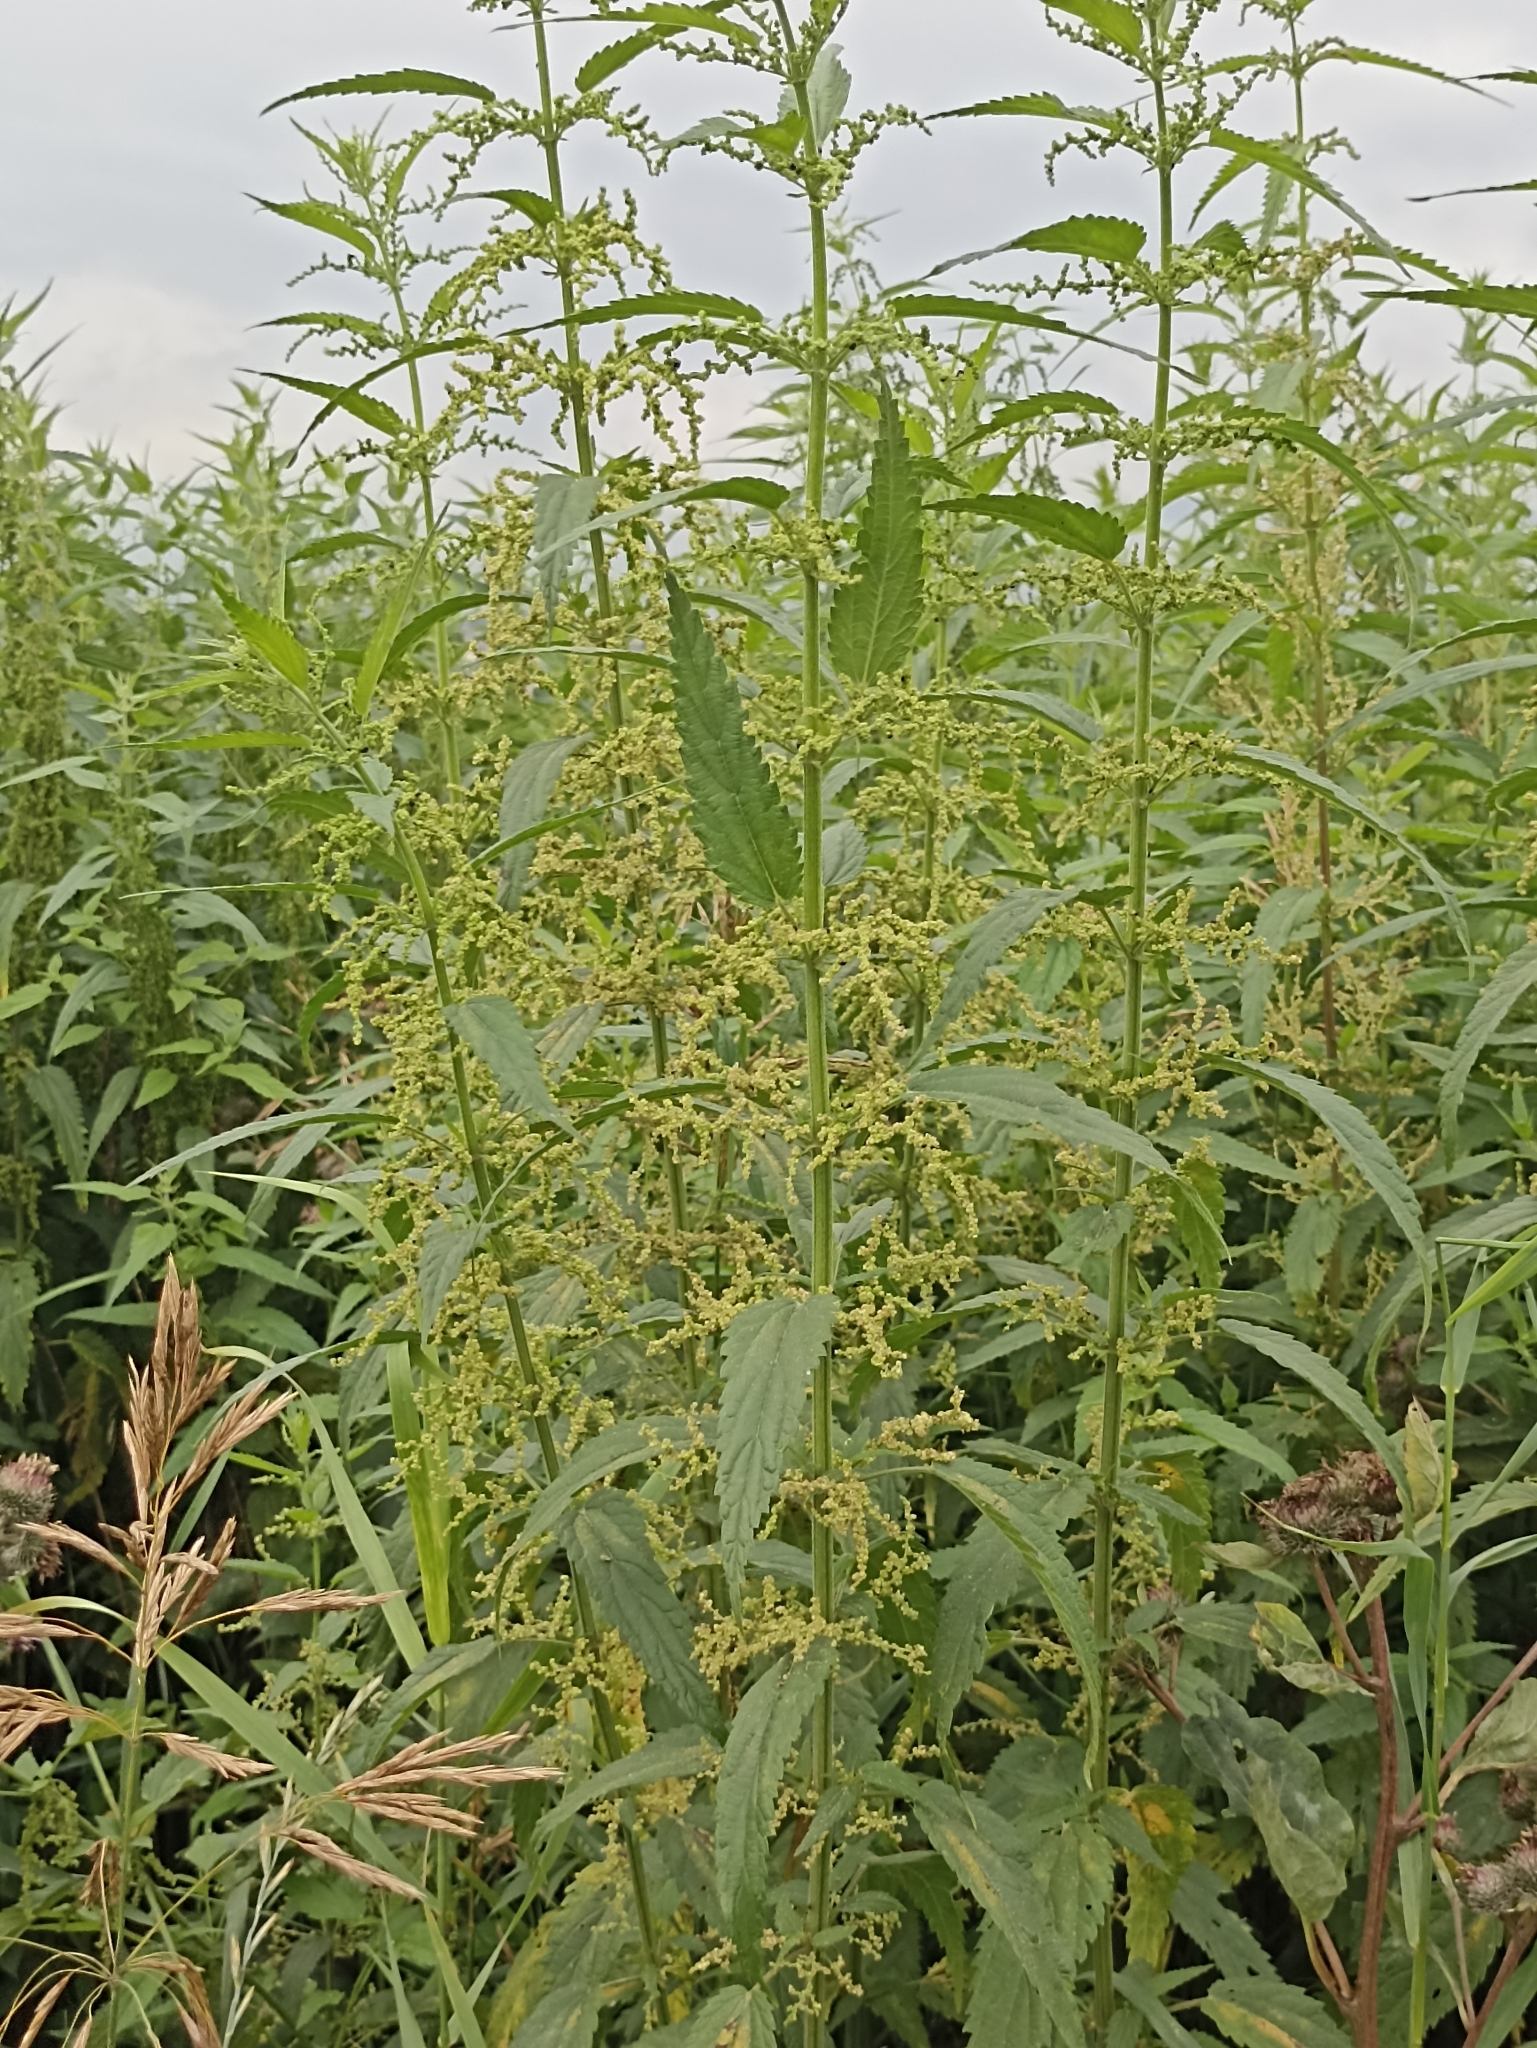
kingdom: Plantae
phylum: Tracheophyta
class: Magnoliopsida
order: Rosales
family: Urticaceae
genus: Urtica
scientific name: Urtica dioica
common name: Common nettle
